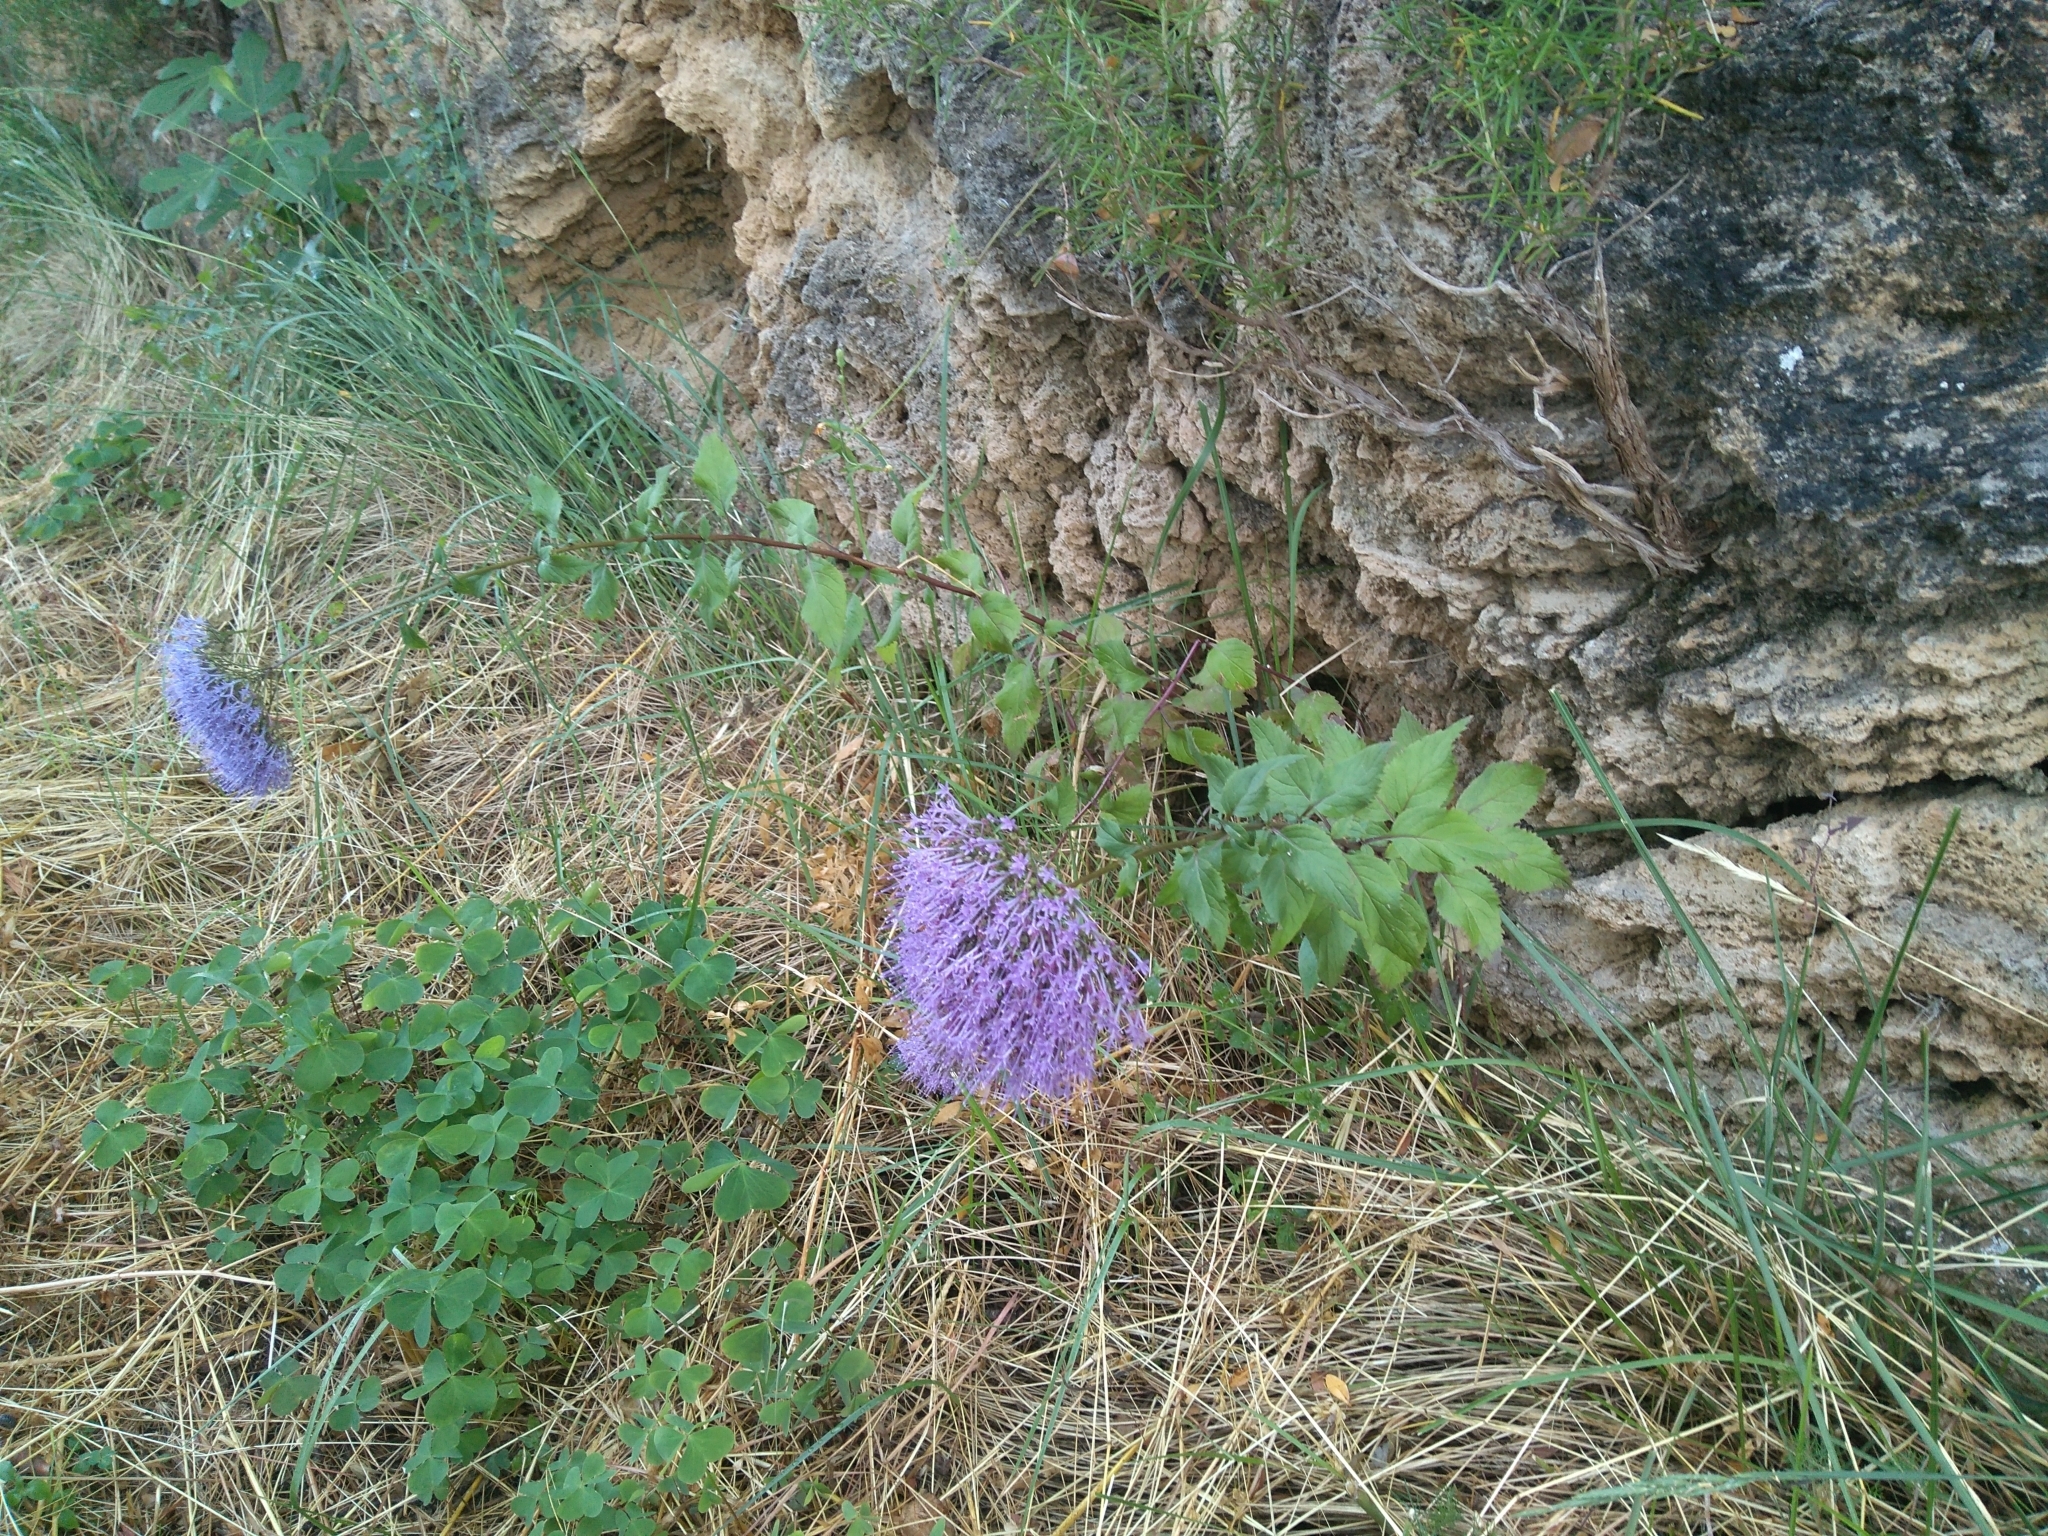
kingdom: Plantae
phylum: Tracheophyta
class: Magnoliopsida
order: Asterales
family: Campanulaceae
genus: Trachelium
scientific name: Trachelium caeruleum
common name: Throatwort
